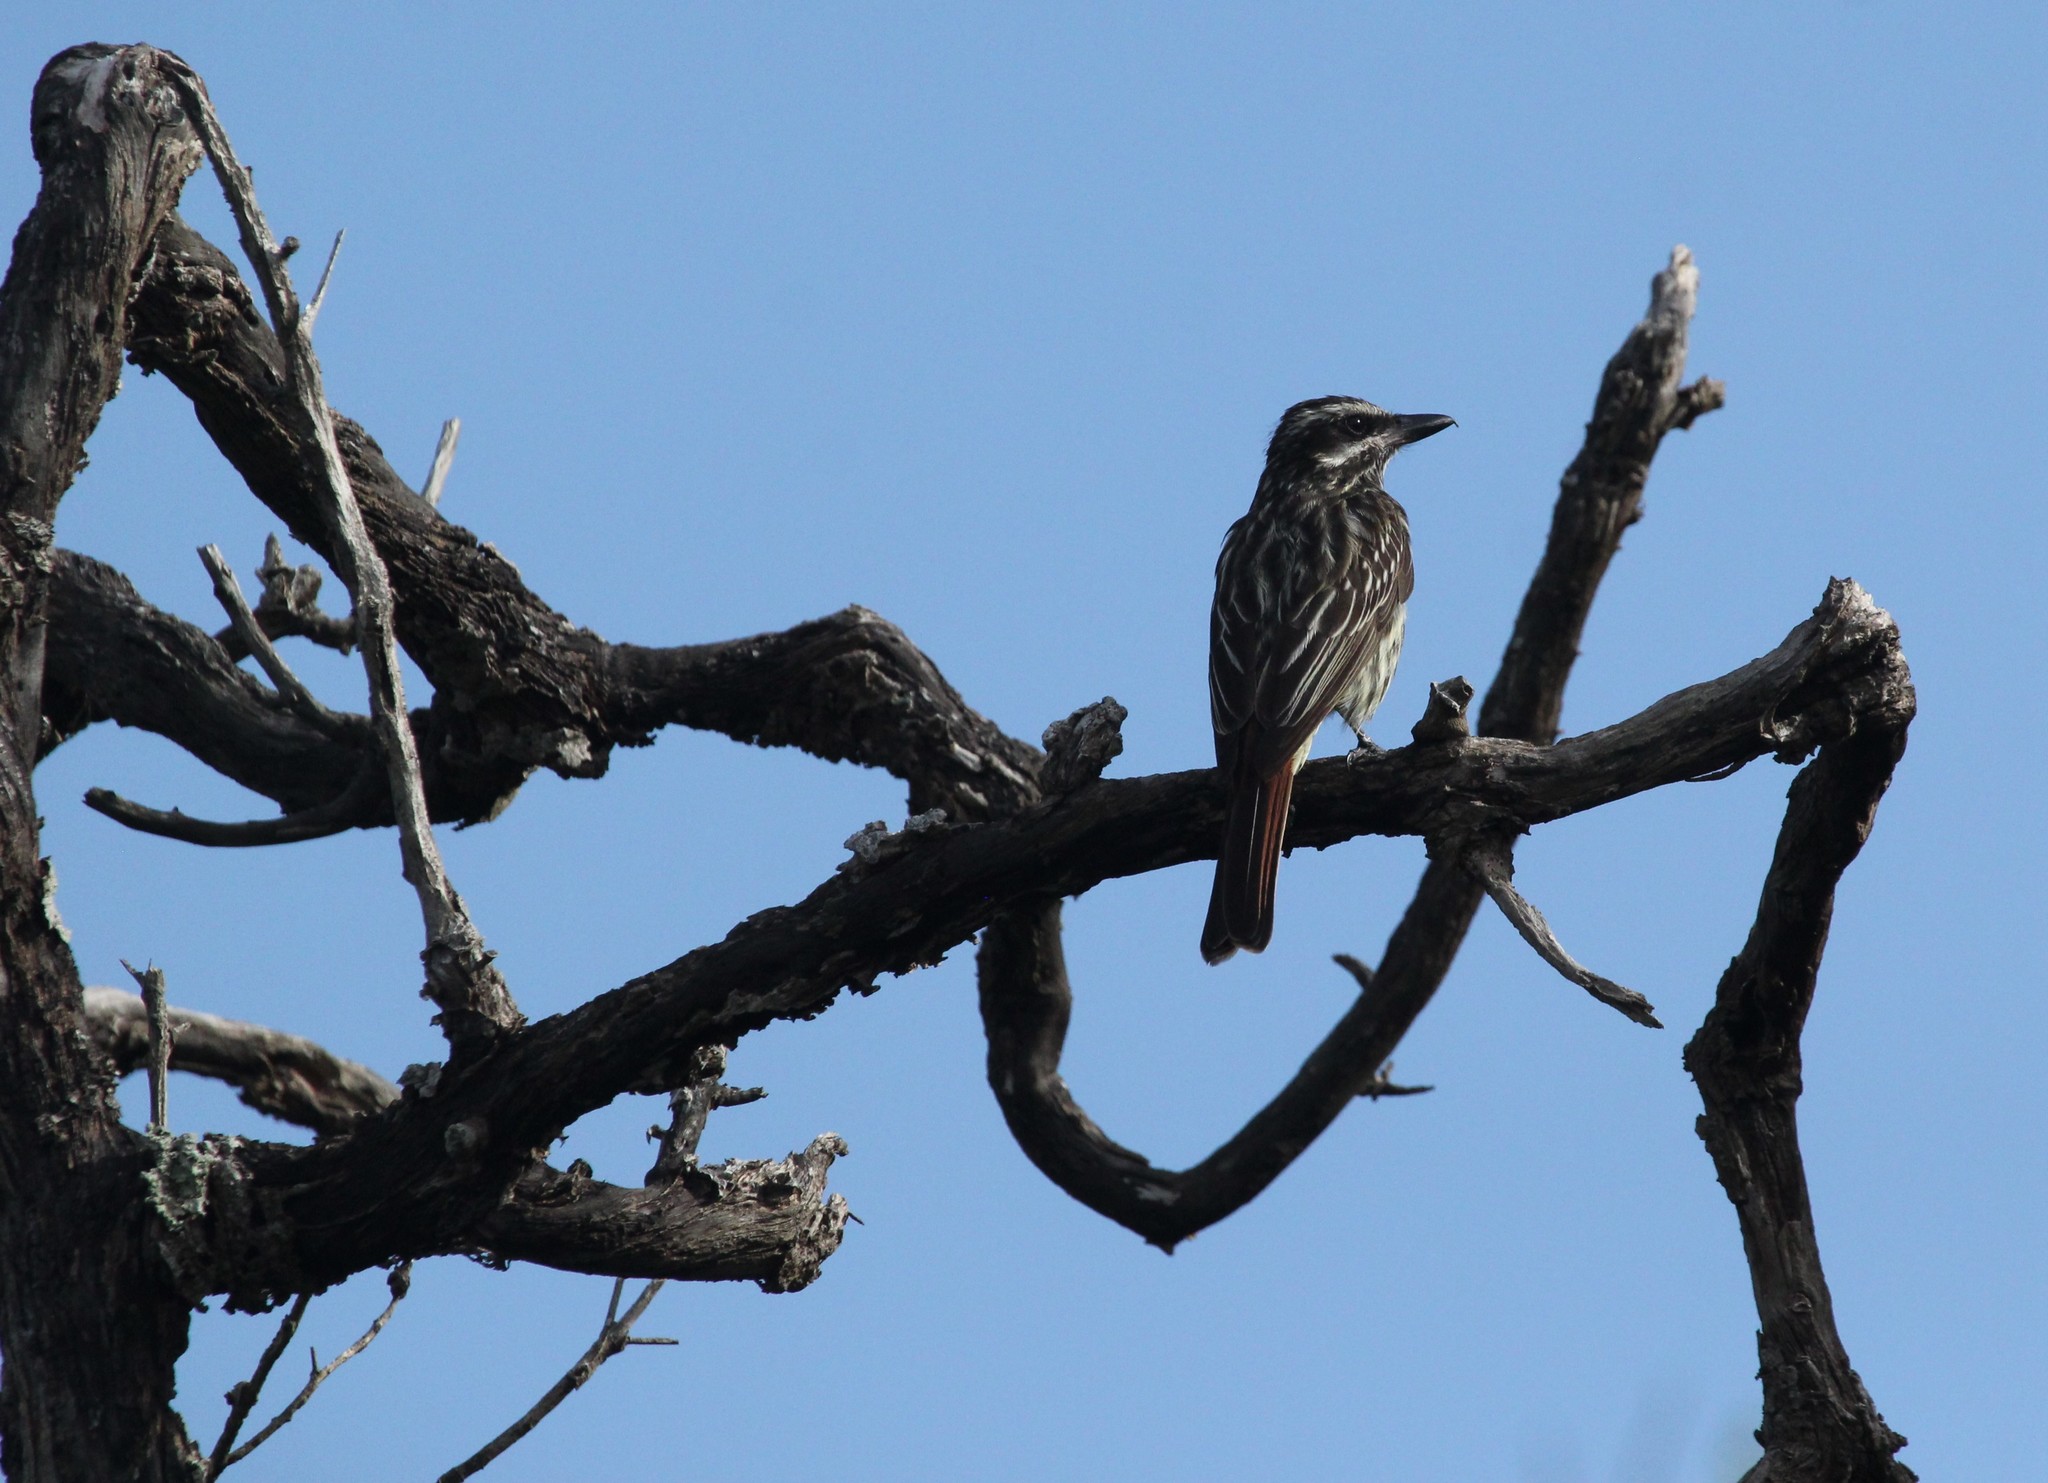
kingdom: Animalia
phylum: Chordata
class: Aves
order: Passeriformes
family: Tyrannidae
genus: Myiodynastes
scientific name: Myiodynastes maculatus
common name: Streaked flycatcher
